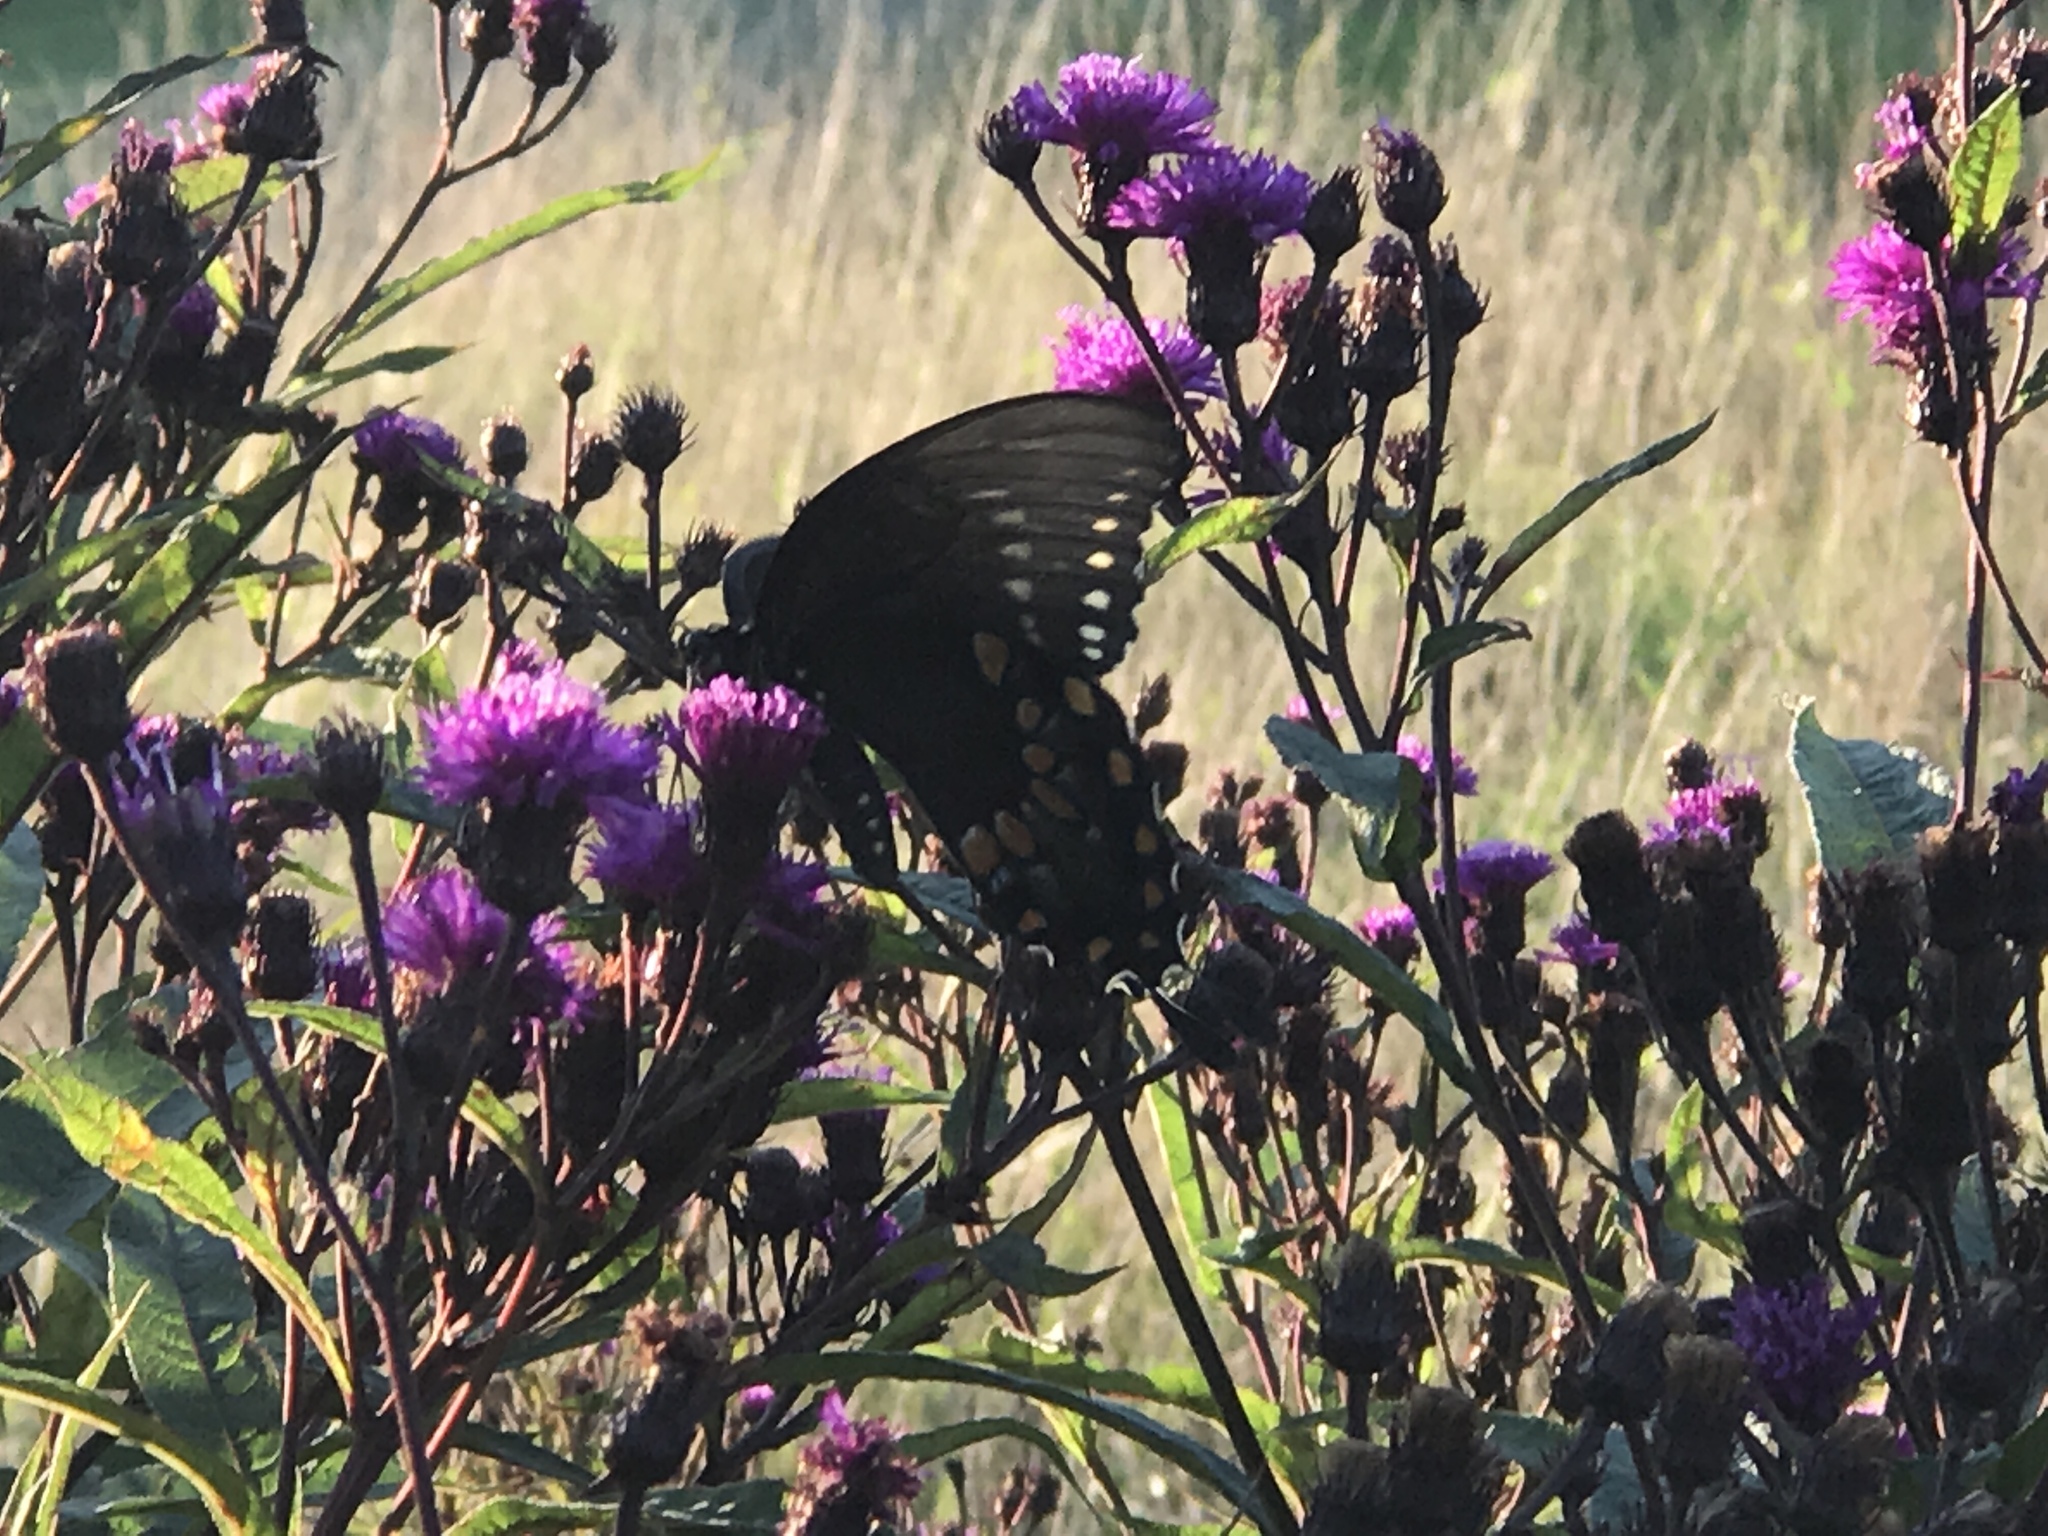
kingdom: Animalia
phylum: Arthropoda
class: Insecta
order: Lepidoptera
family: Papilionidae
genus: Papilio
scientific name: Papilio troilus
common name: Spicebush swallowtail
